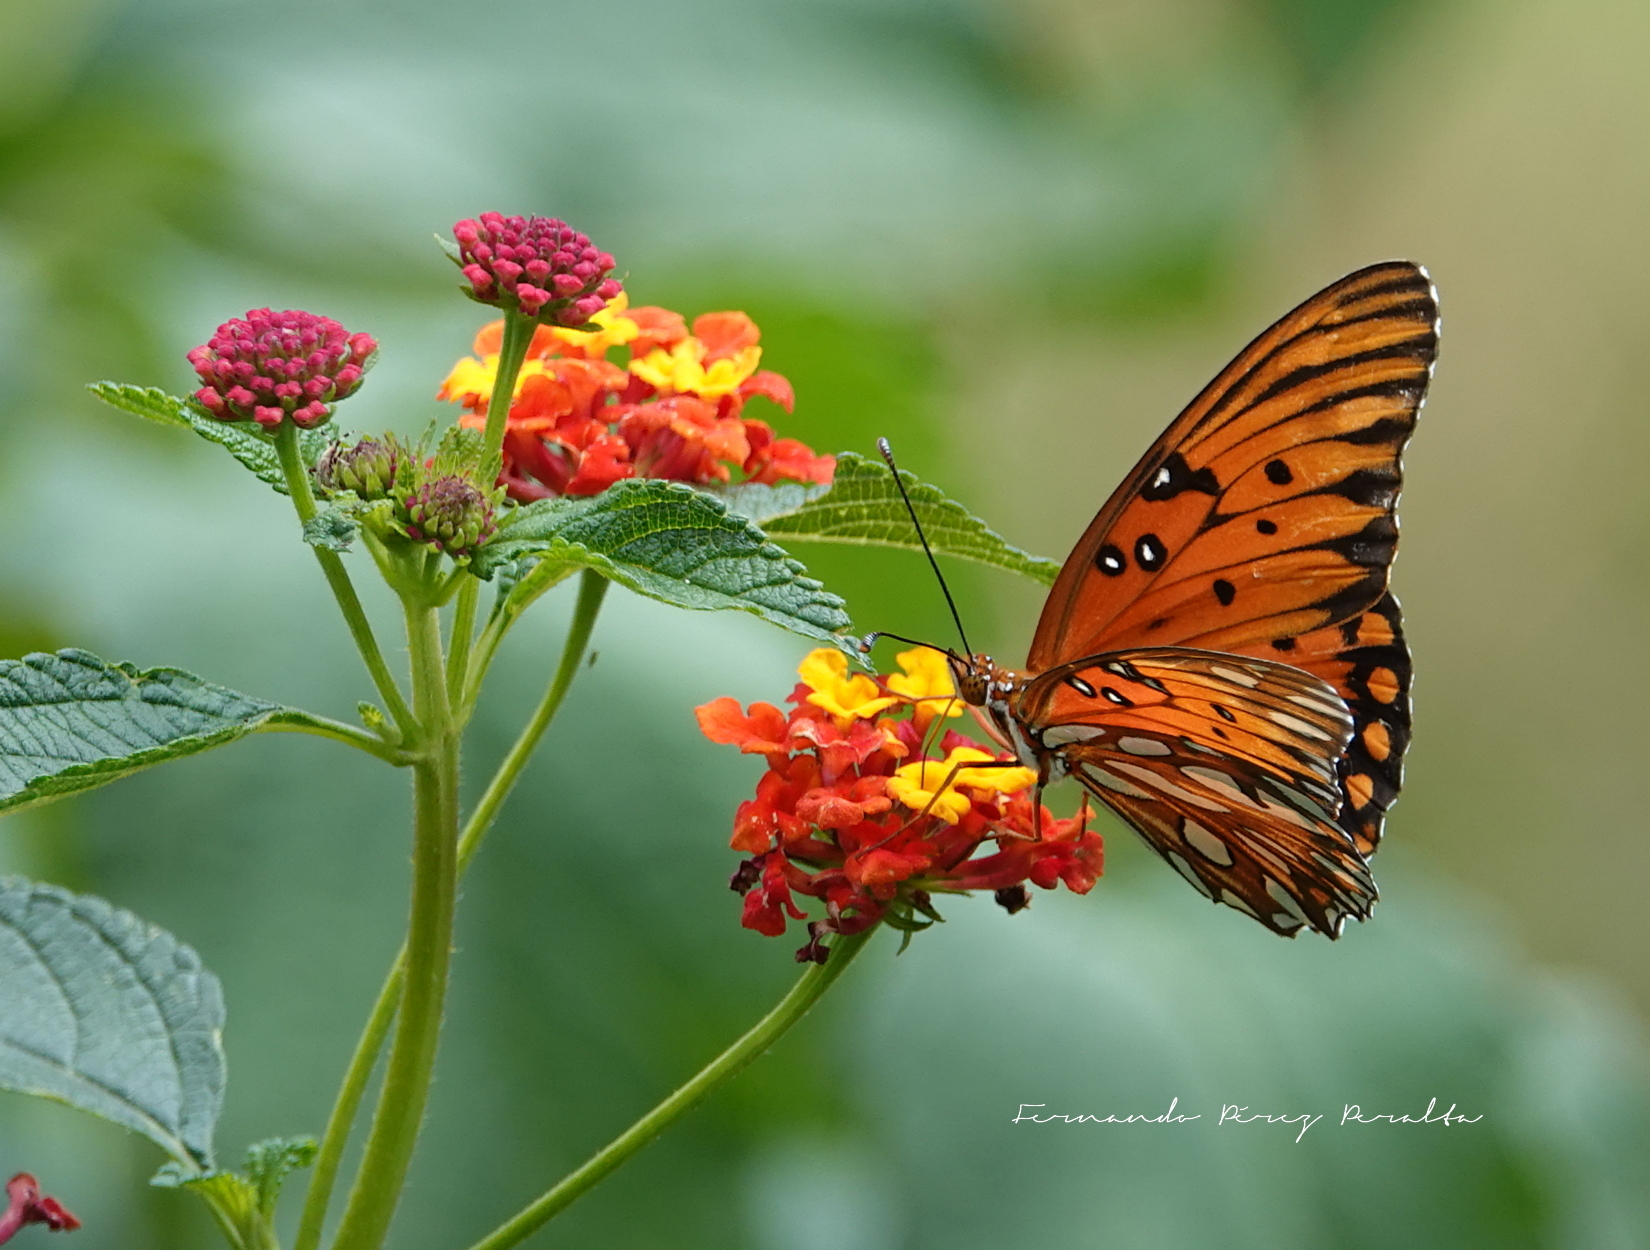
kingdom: Animalia
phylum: Arthropoda
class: Insecta
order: Lepidoptera
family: Nymphalidae
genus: Dione
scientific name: Dione vanillae
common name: Gulf fritillary
